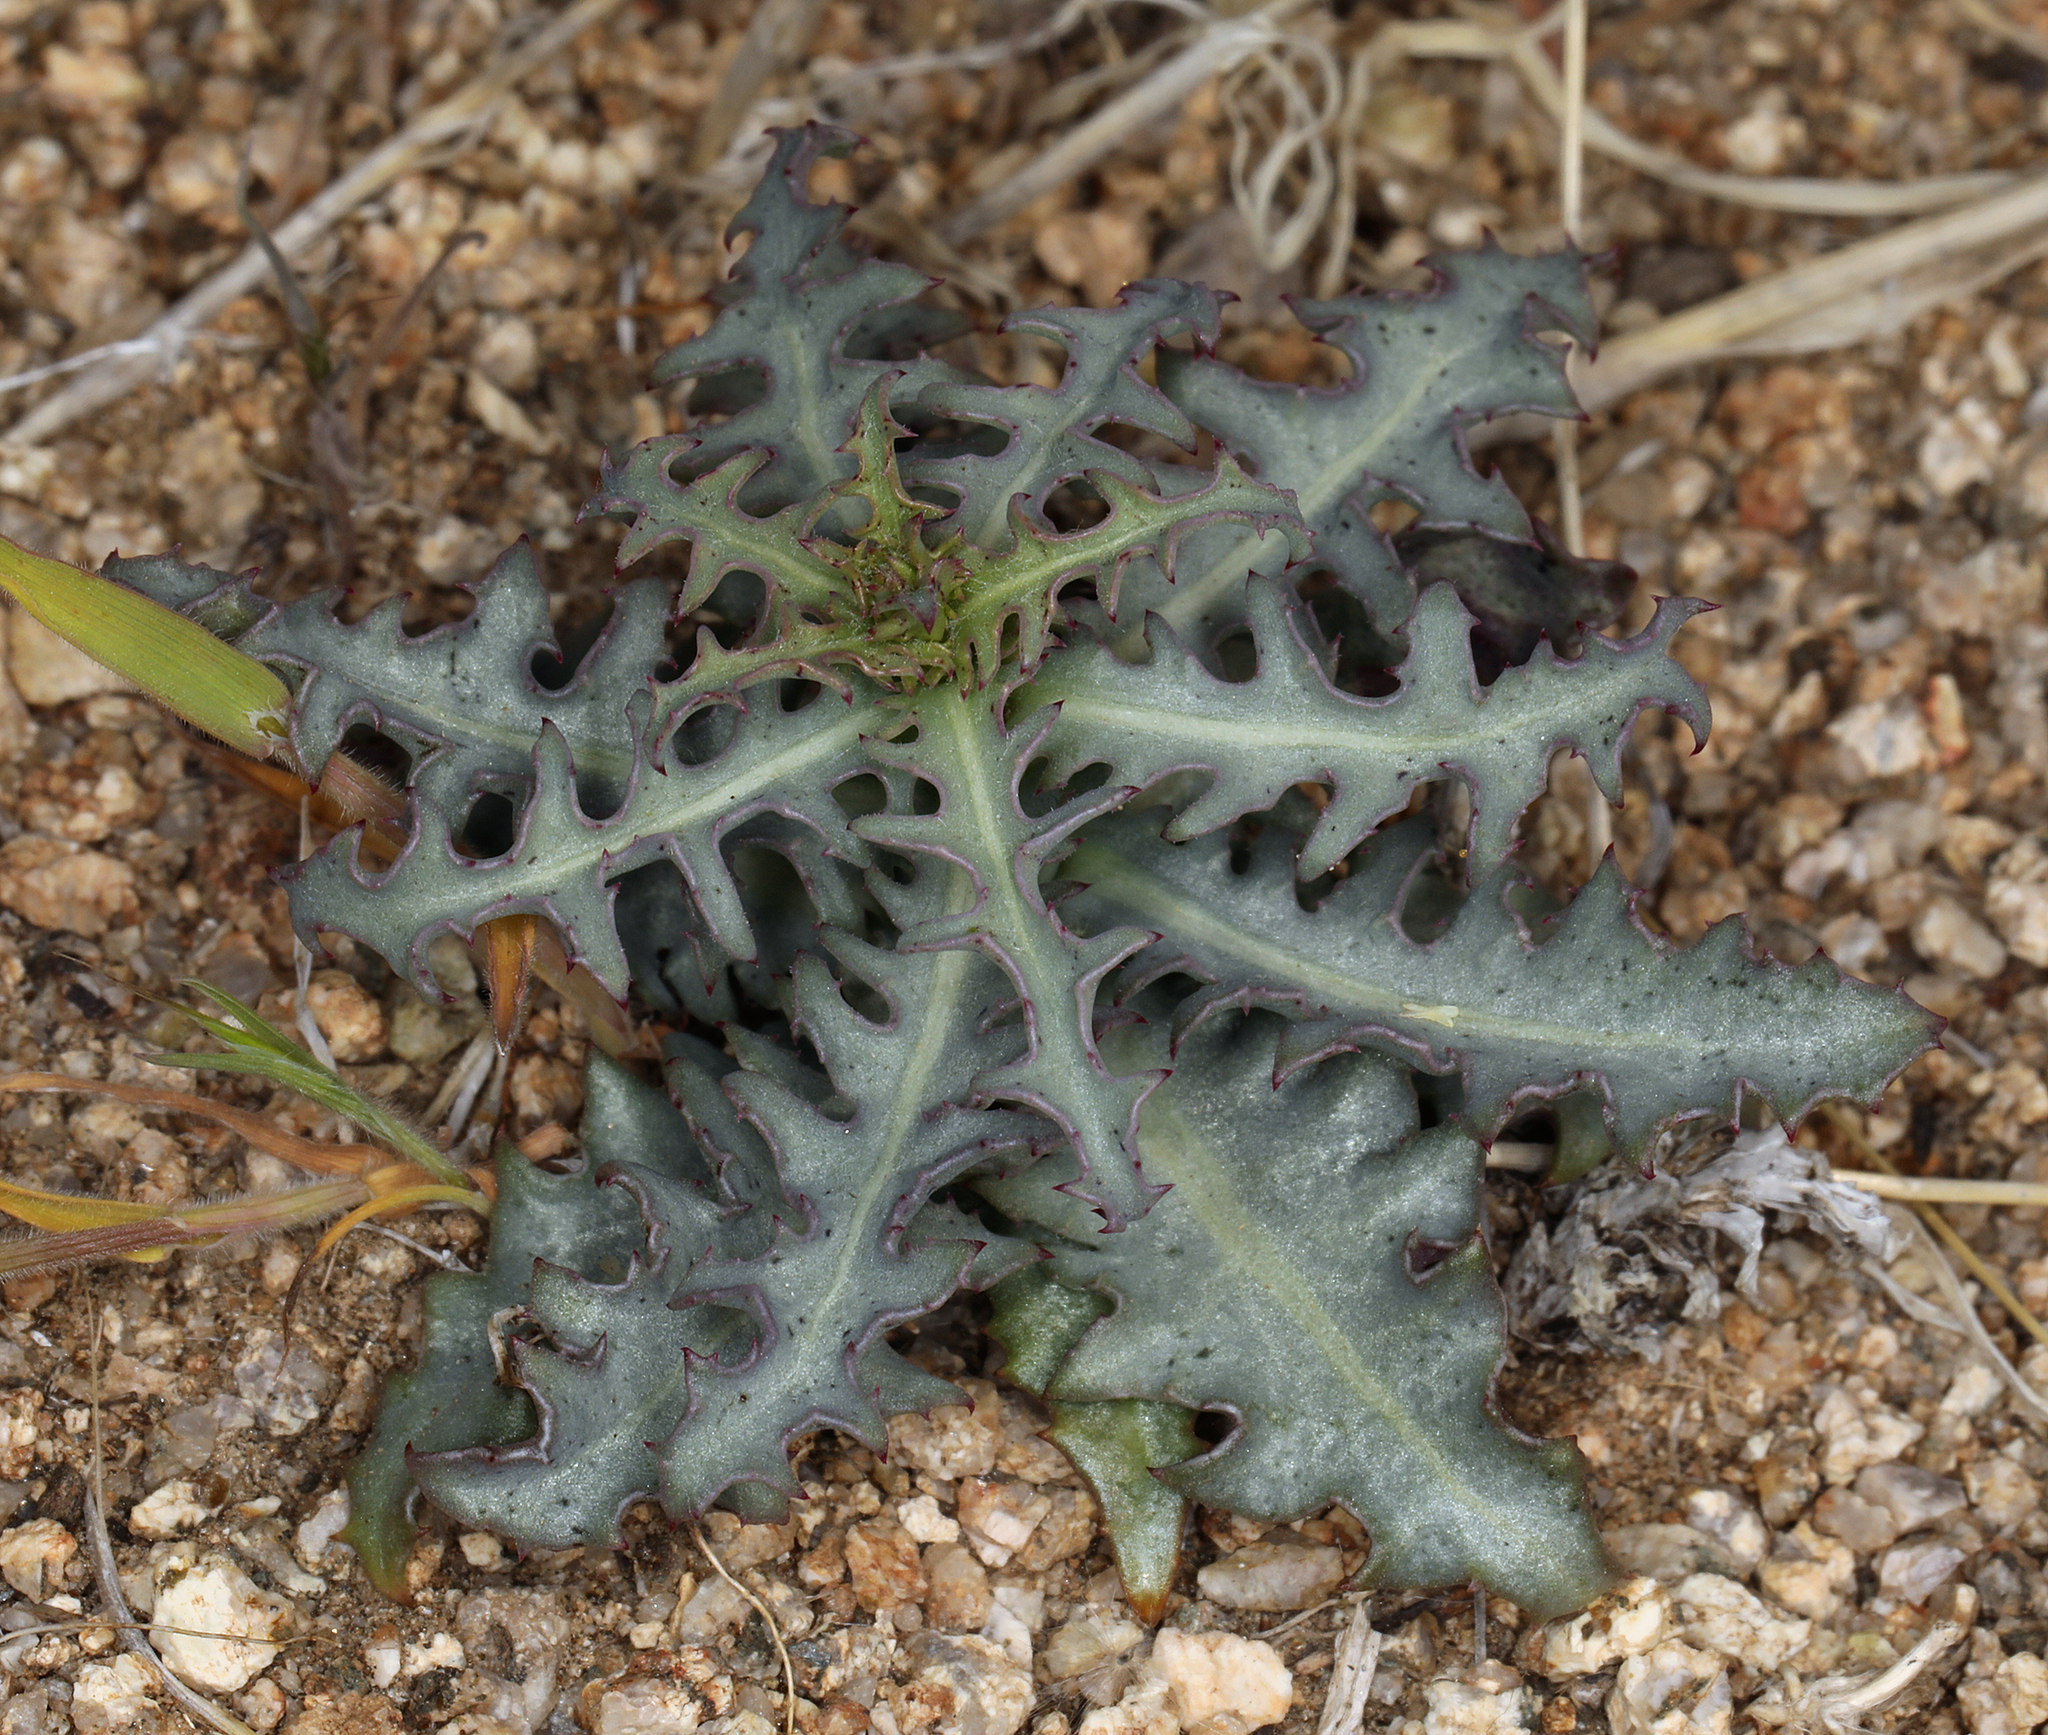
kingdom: Plantae
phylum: Tracheophyta
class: Magnoliopsida
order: Asterales
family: Asteraceae
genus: Stephanomeria
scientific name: Stephanomeria parryi
